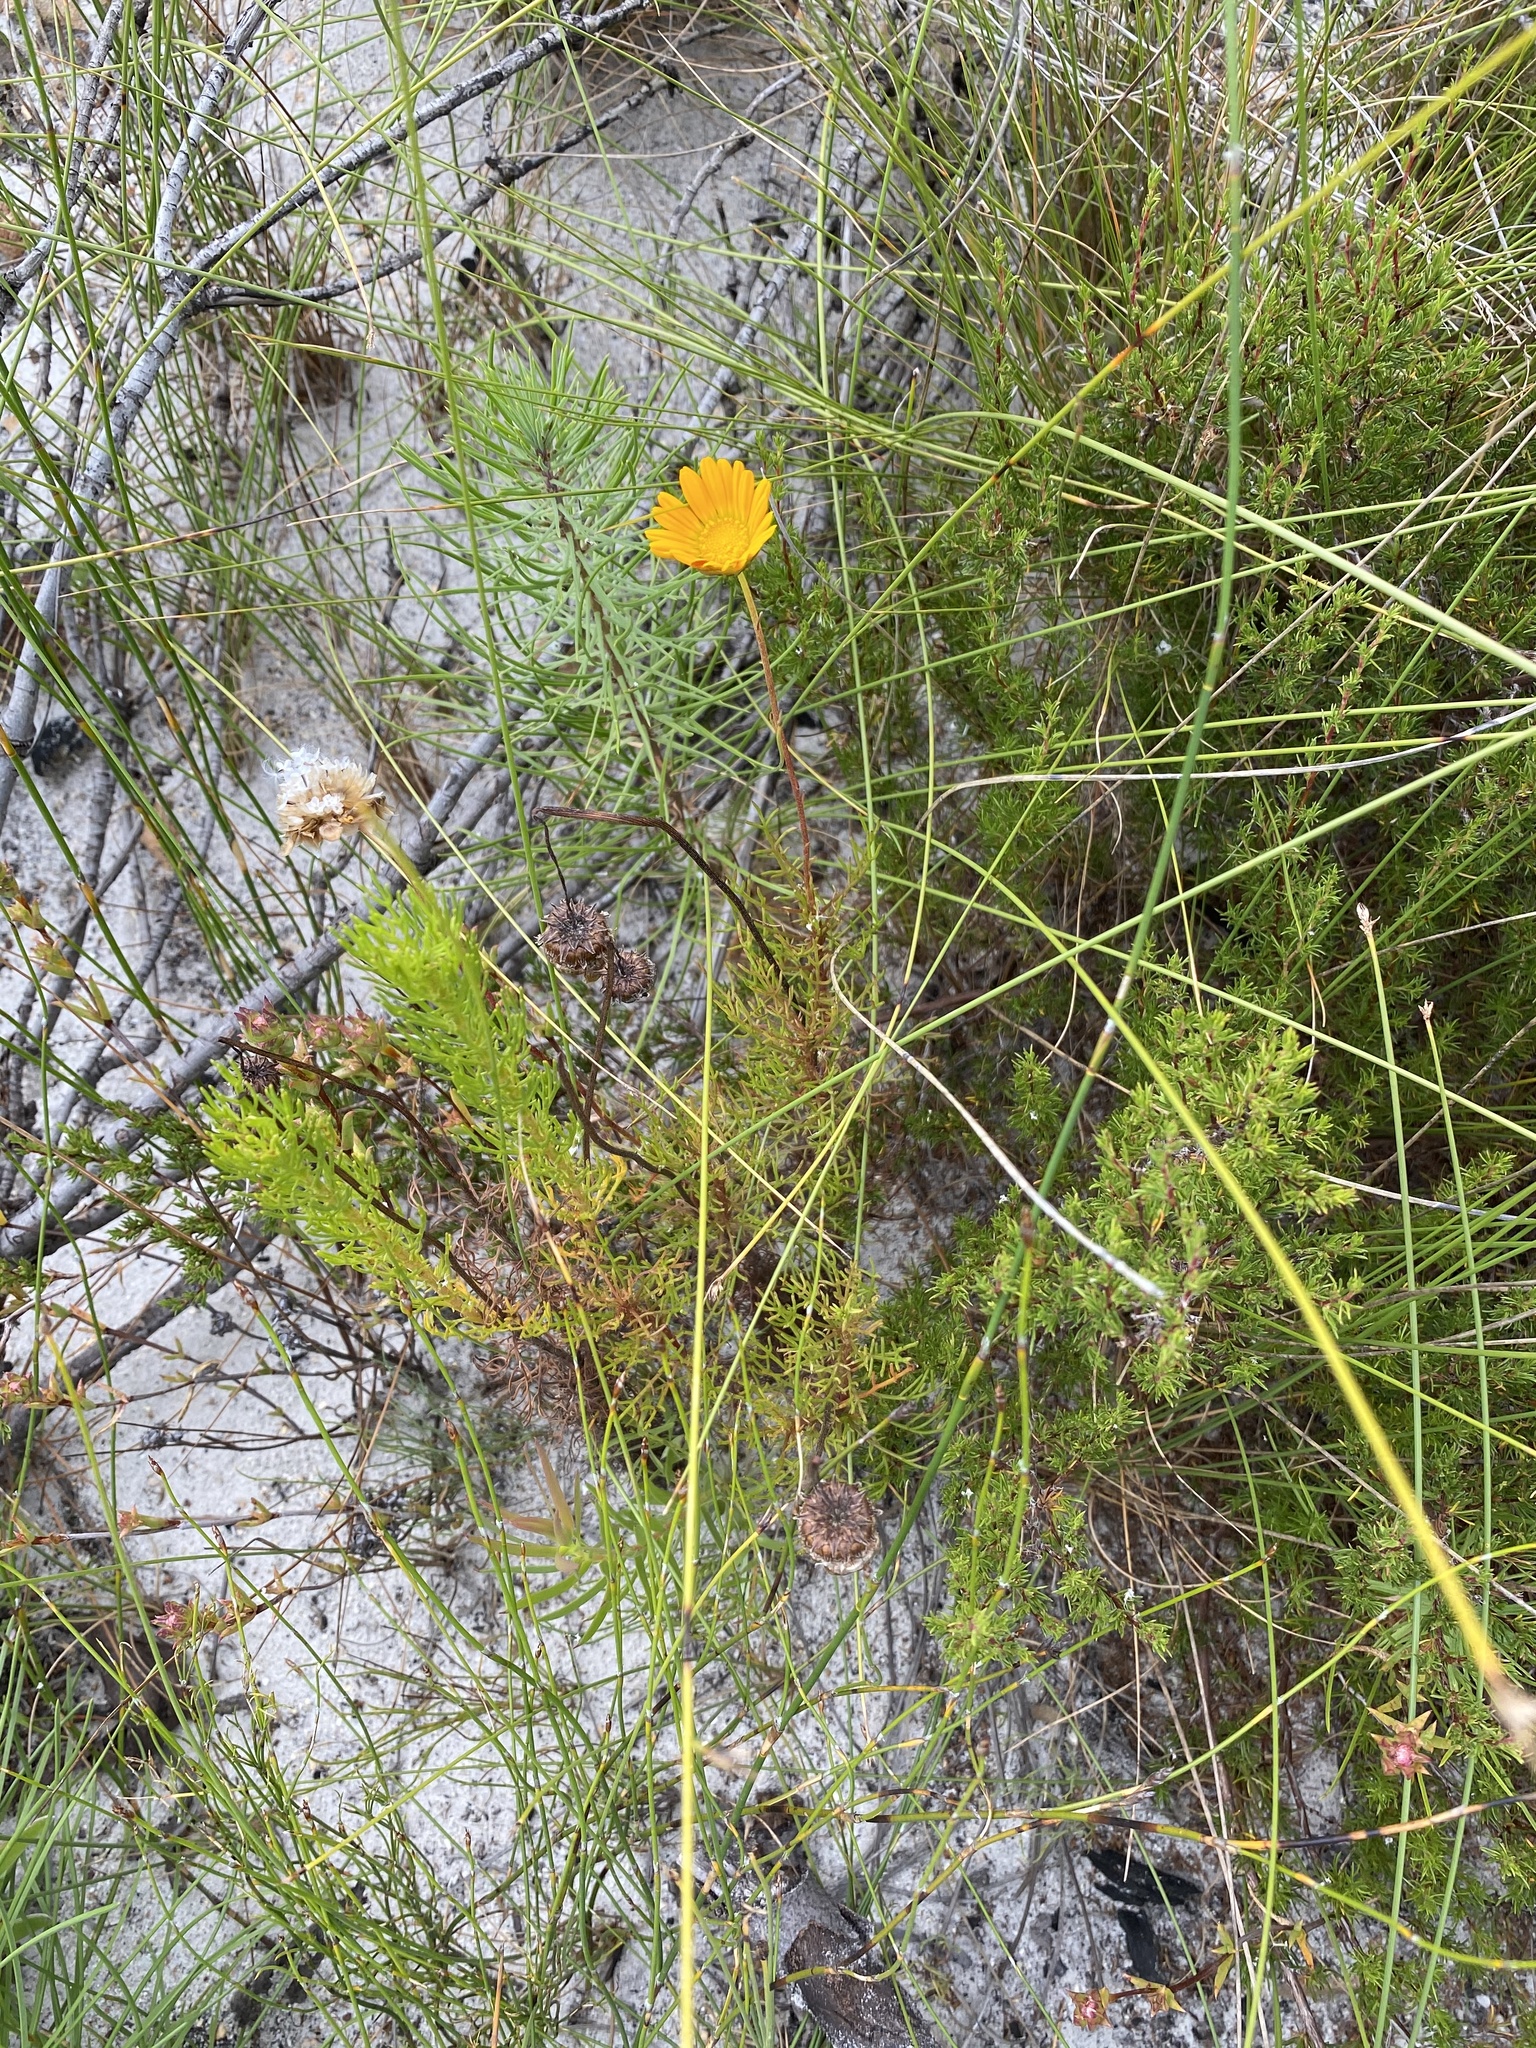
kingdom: Plantae
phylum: Tracheophyta
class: Magnoliopsida
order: Asterales
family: Asteraceae
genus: Ursinia
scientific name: Ursinia oreogena
